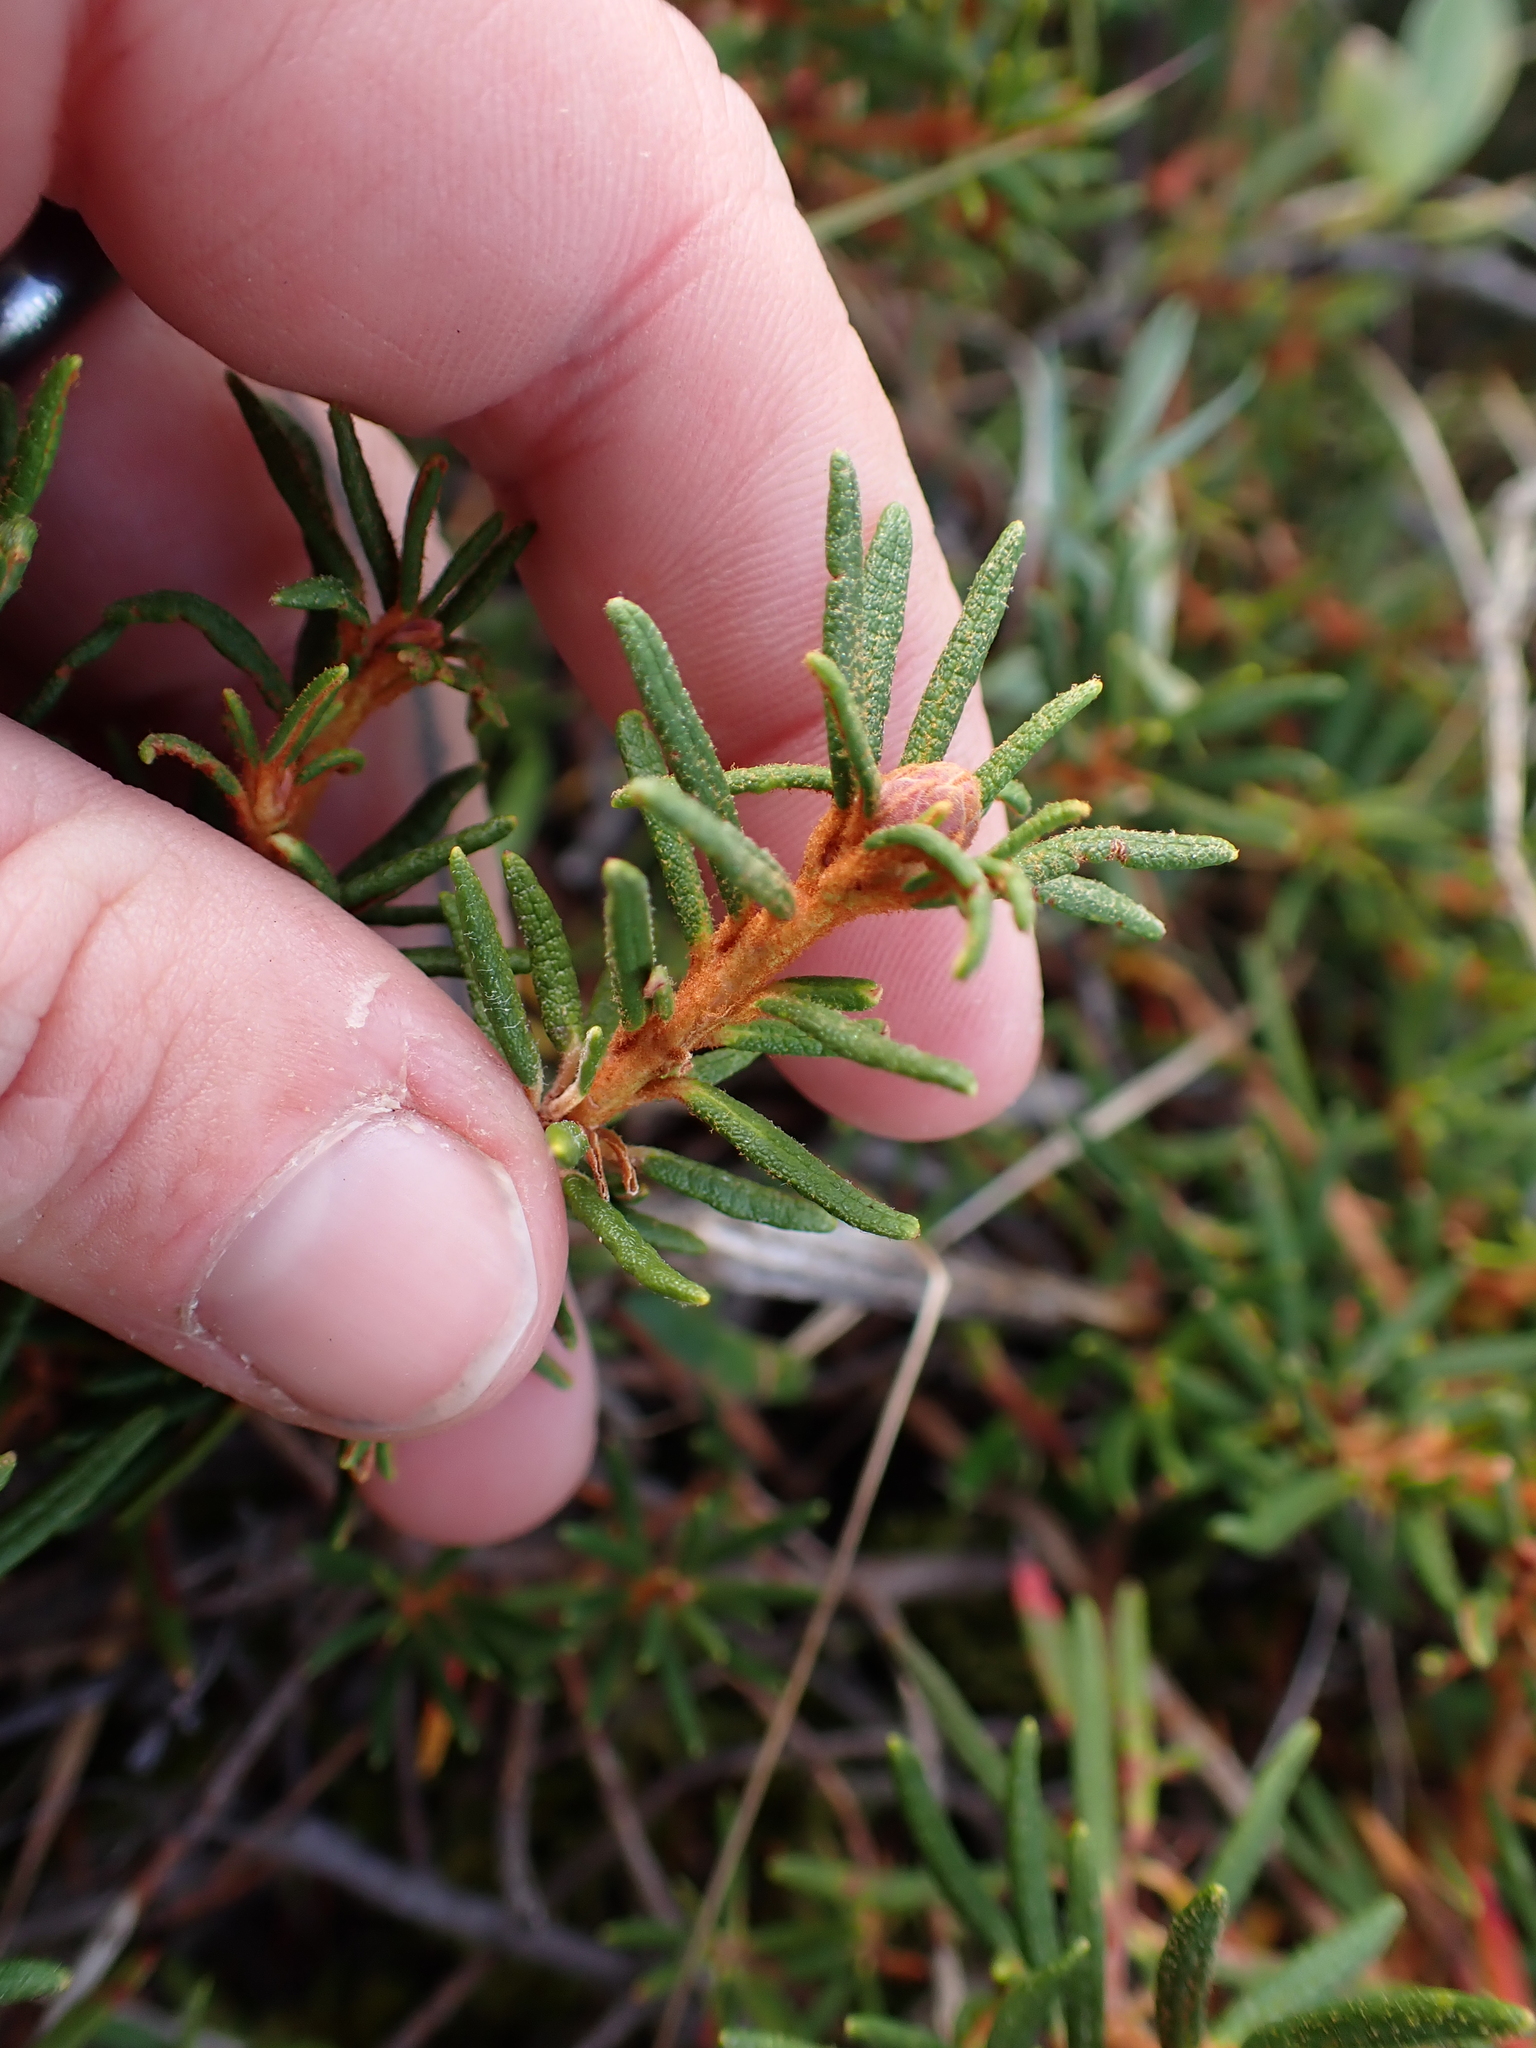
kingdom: Plantae
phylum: Tracheophyta
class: Magnoliopsida
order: Ericales
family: Ericaceae
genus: Rhododendron
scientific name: Rhododendron tomentosum
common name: Marsh labrador tea
